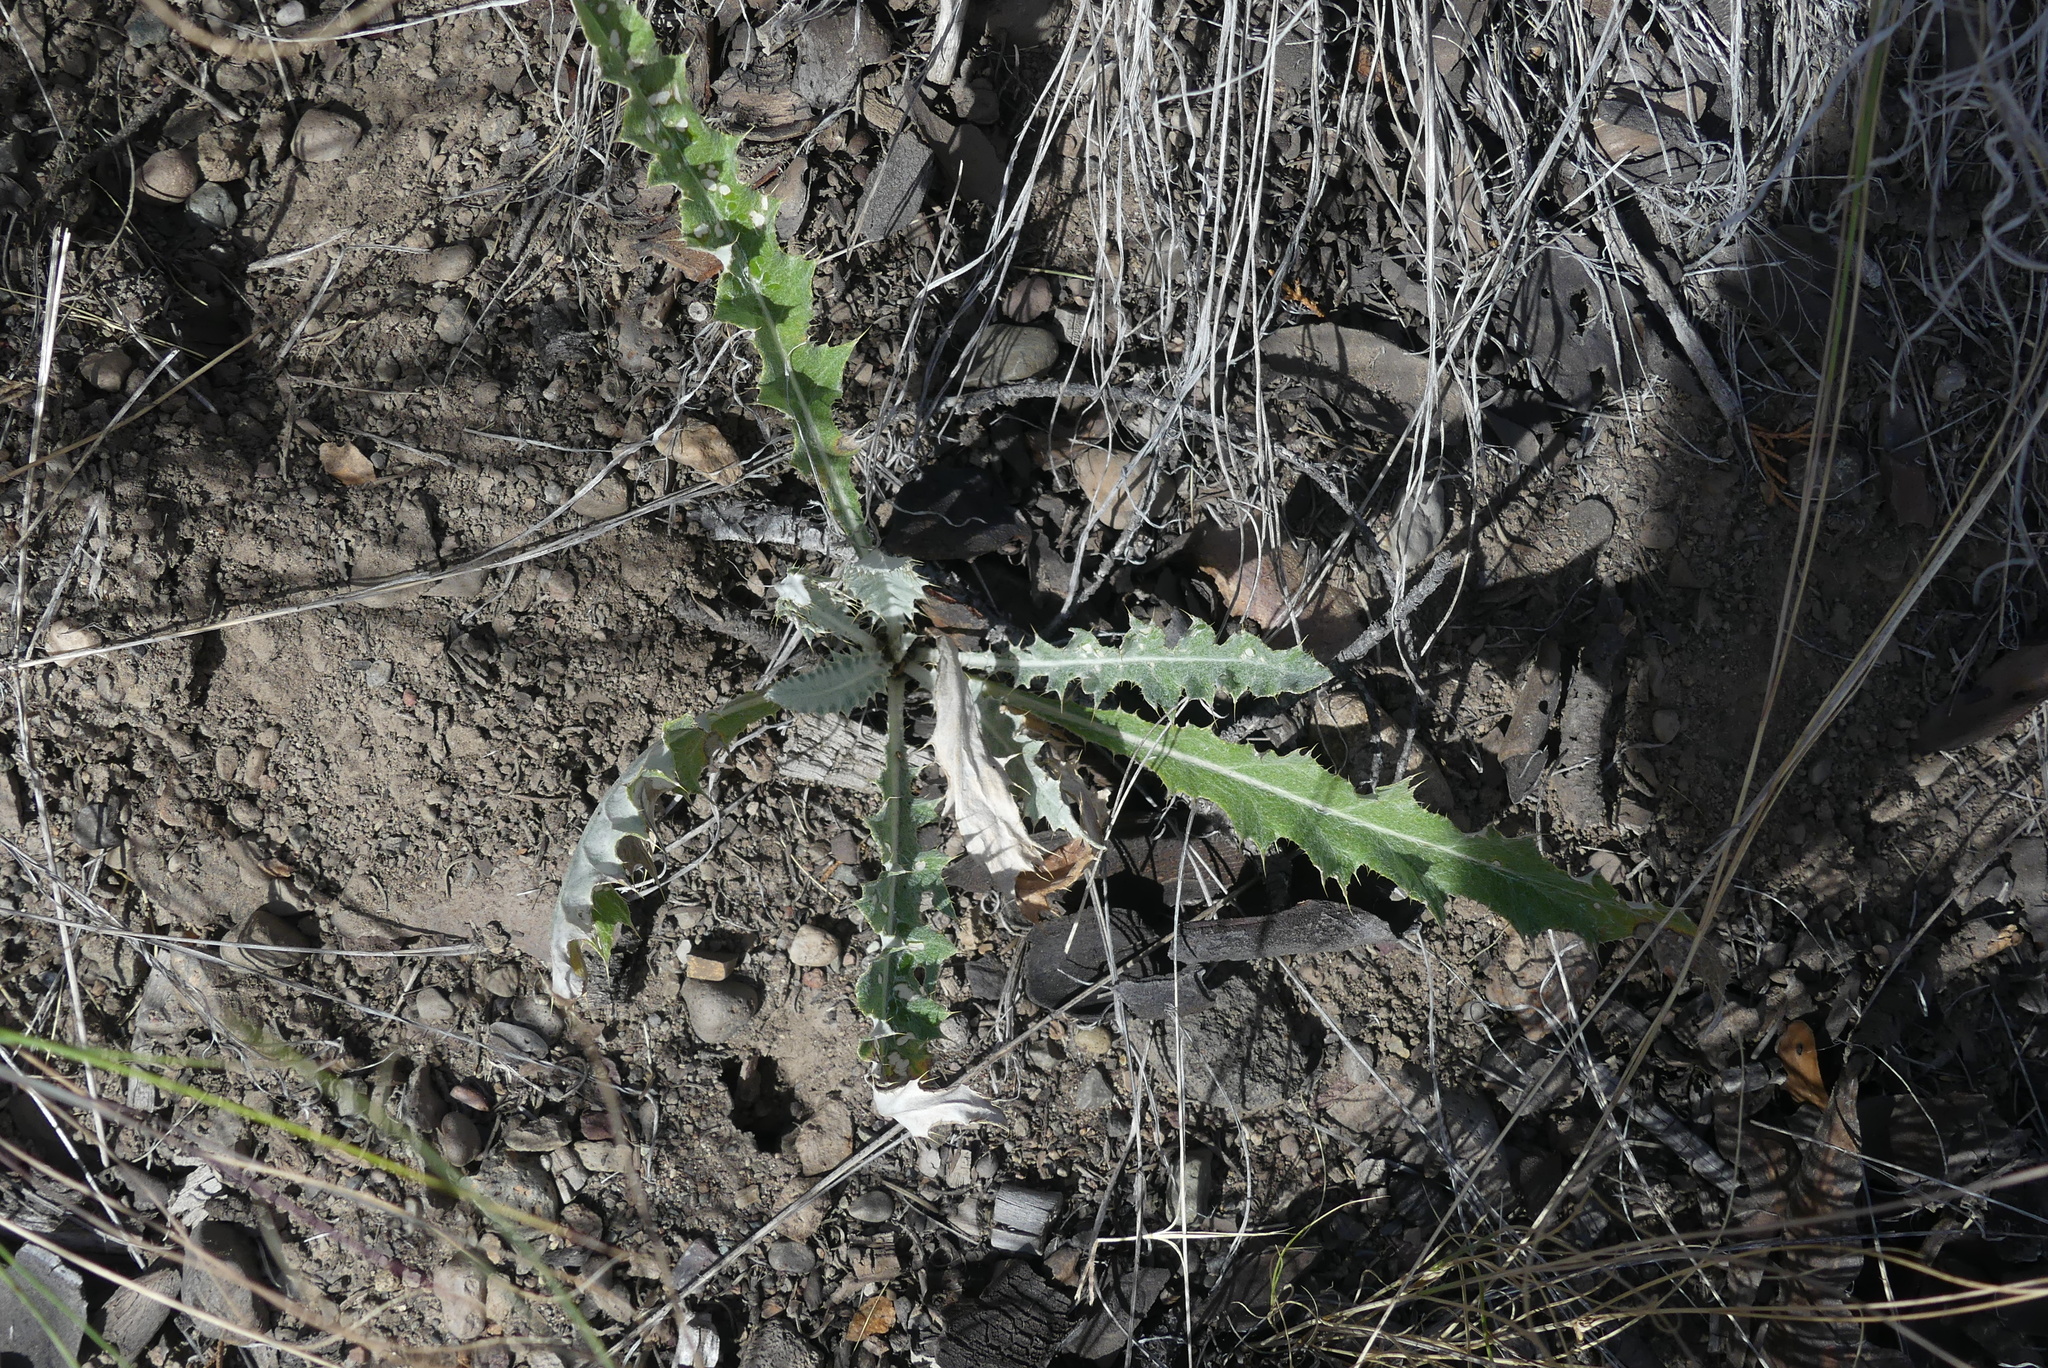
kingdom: Plantae
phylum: Tracheophyta
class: Magnoliopsida
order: Asterales
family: Asteraceae
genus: Cirsium
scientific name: Cirsium undulatum
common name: Pasture thistle
